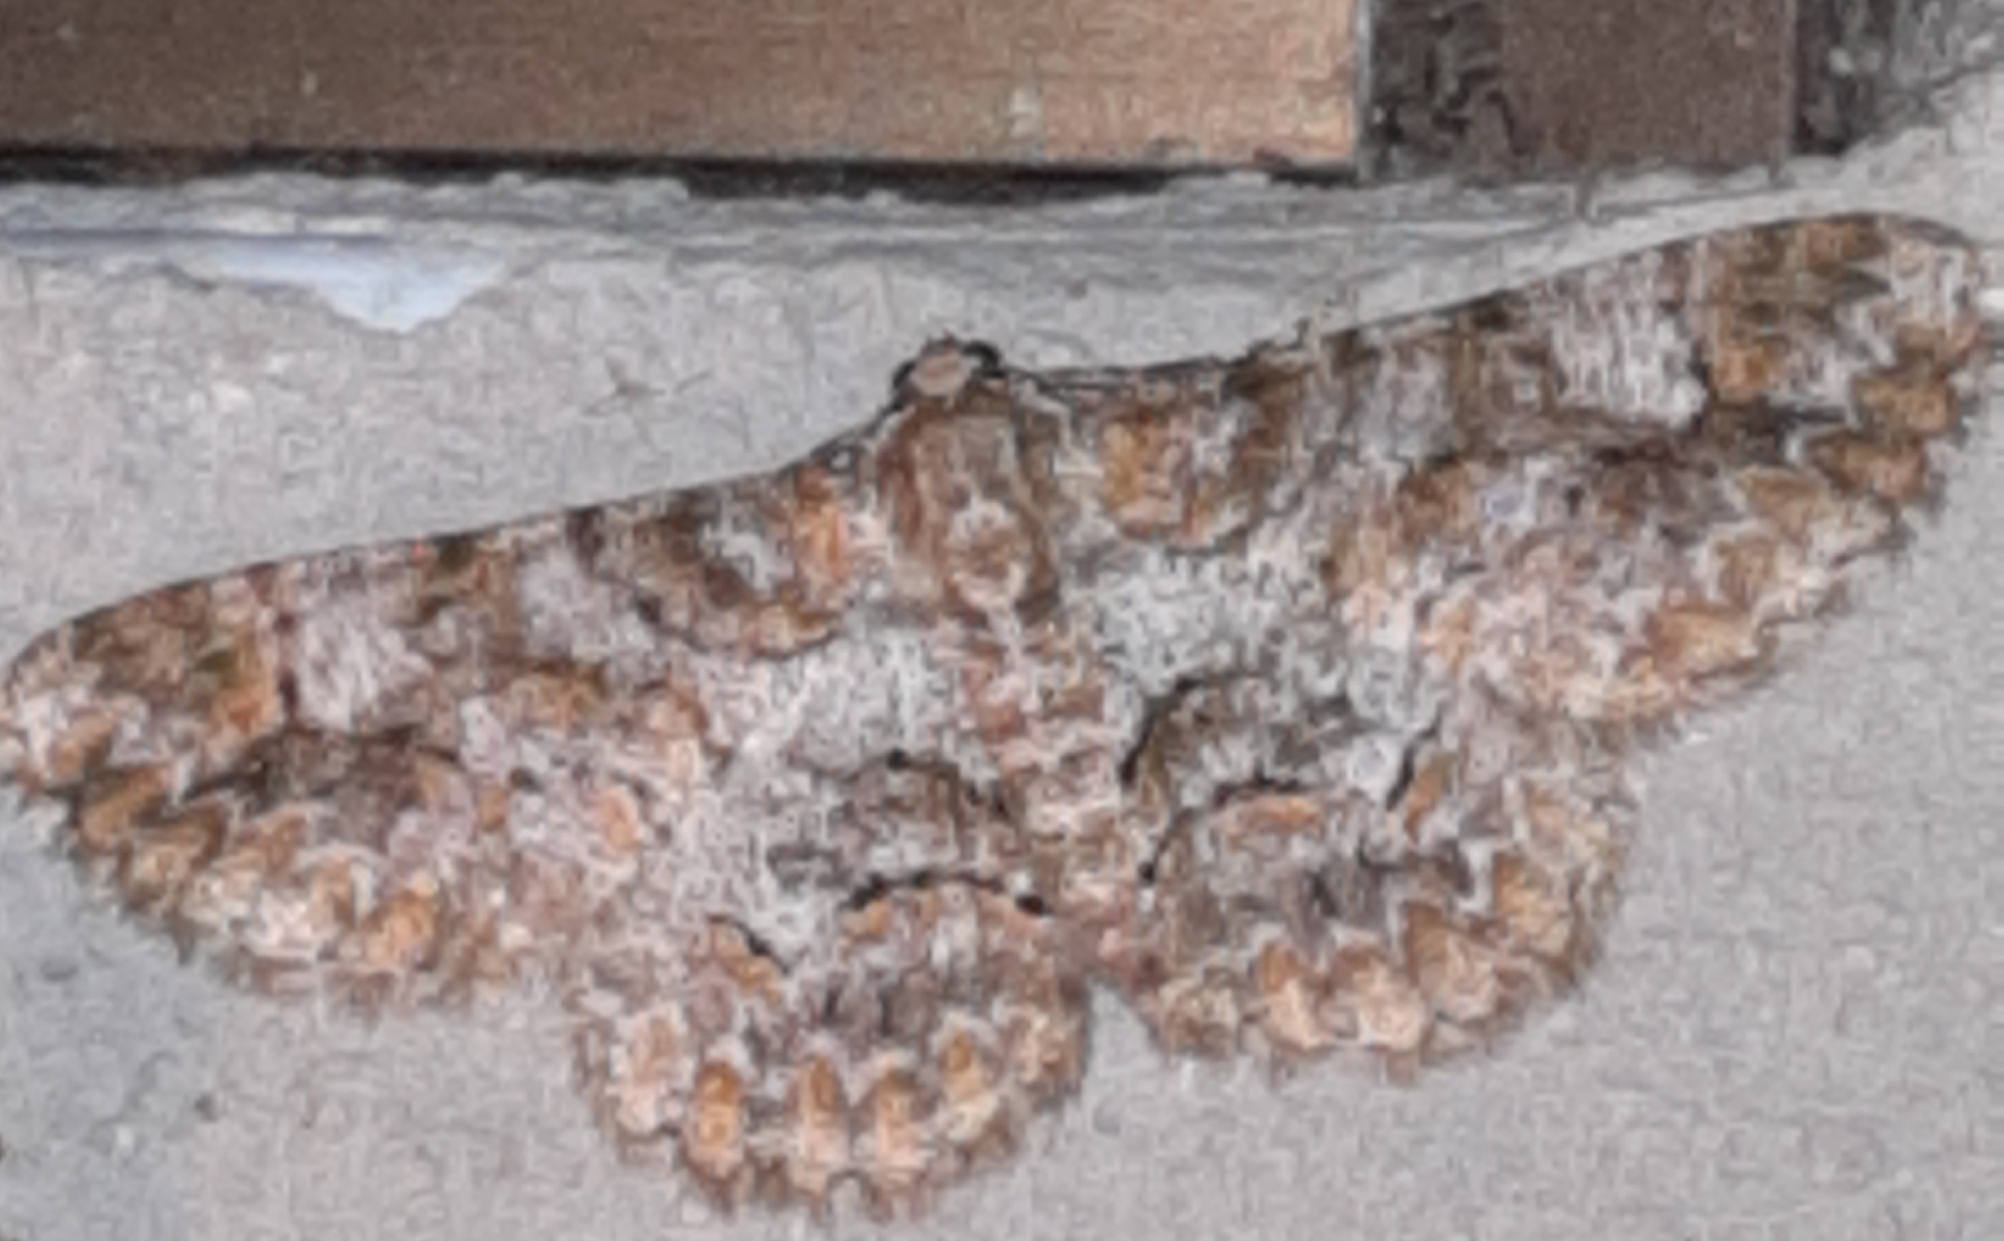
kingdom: Animalia
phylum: Arthropoda
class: Insecta
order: Lepidoptera
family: Geometridae
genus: Iridopsis
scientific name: Iridopsis herse
